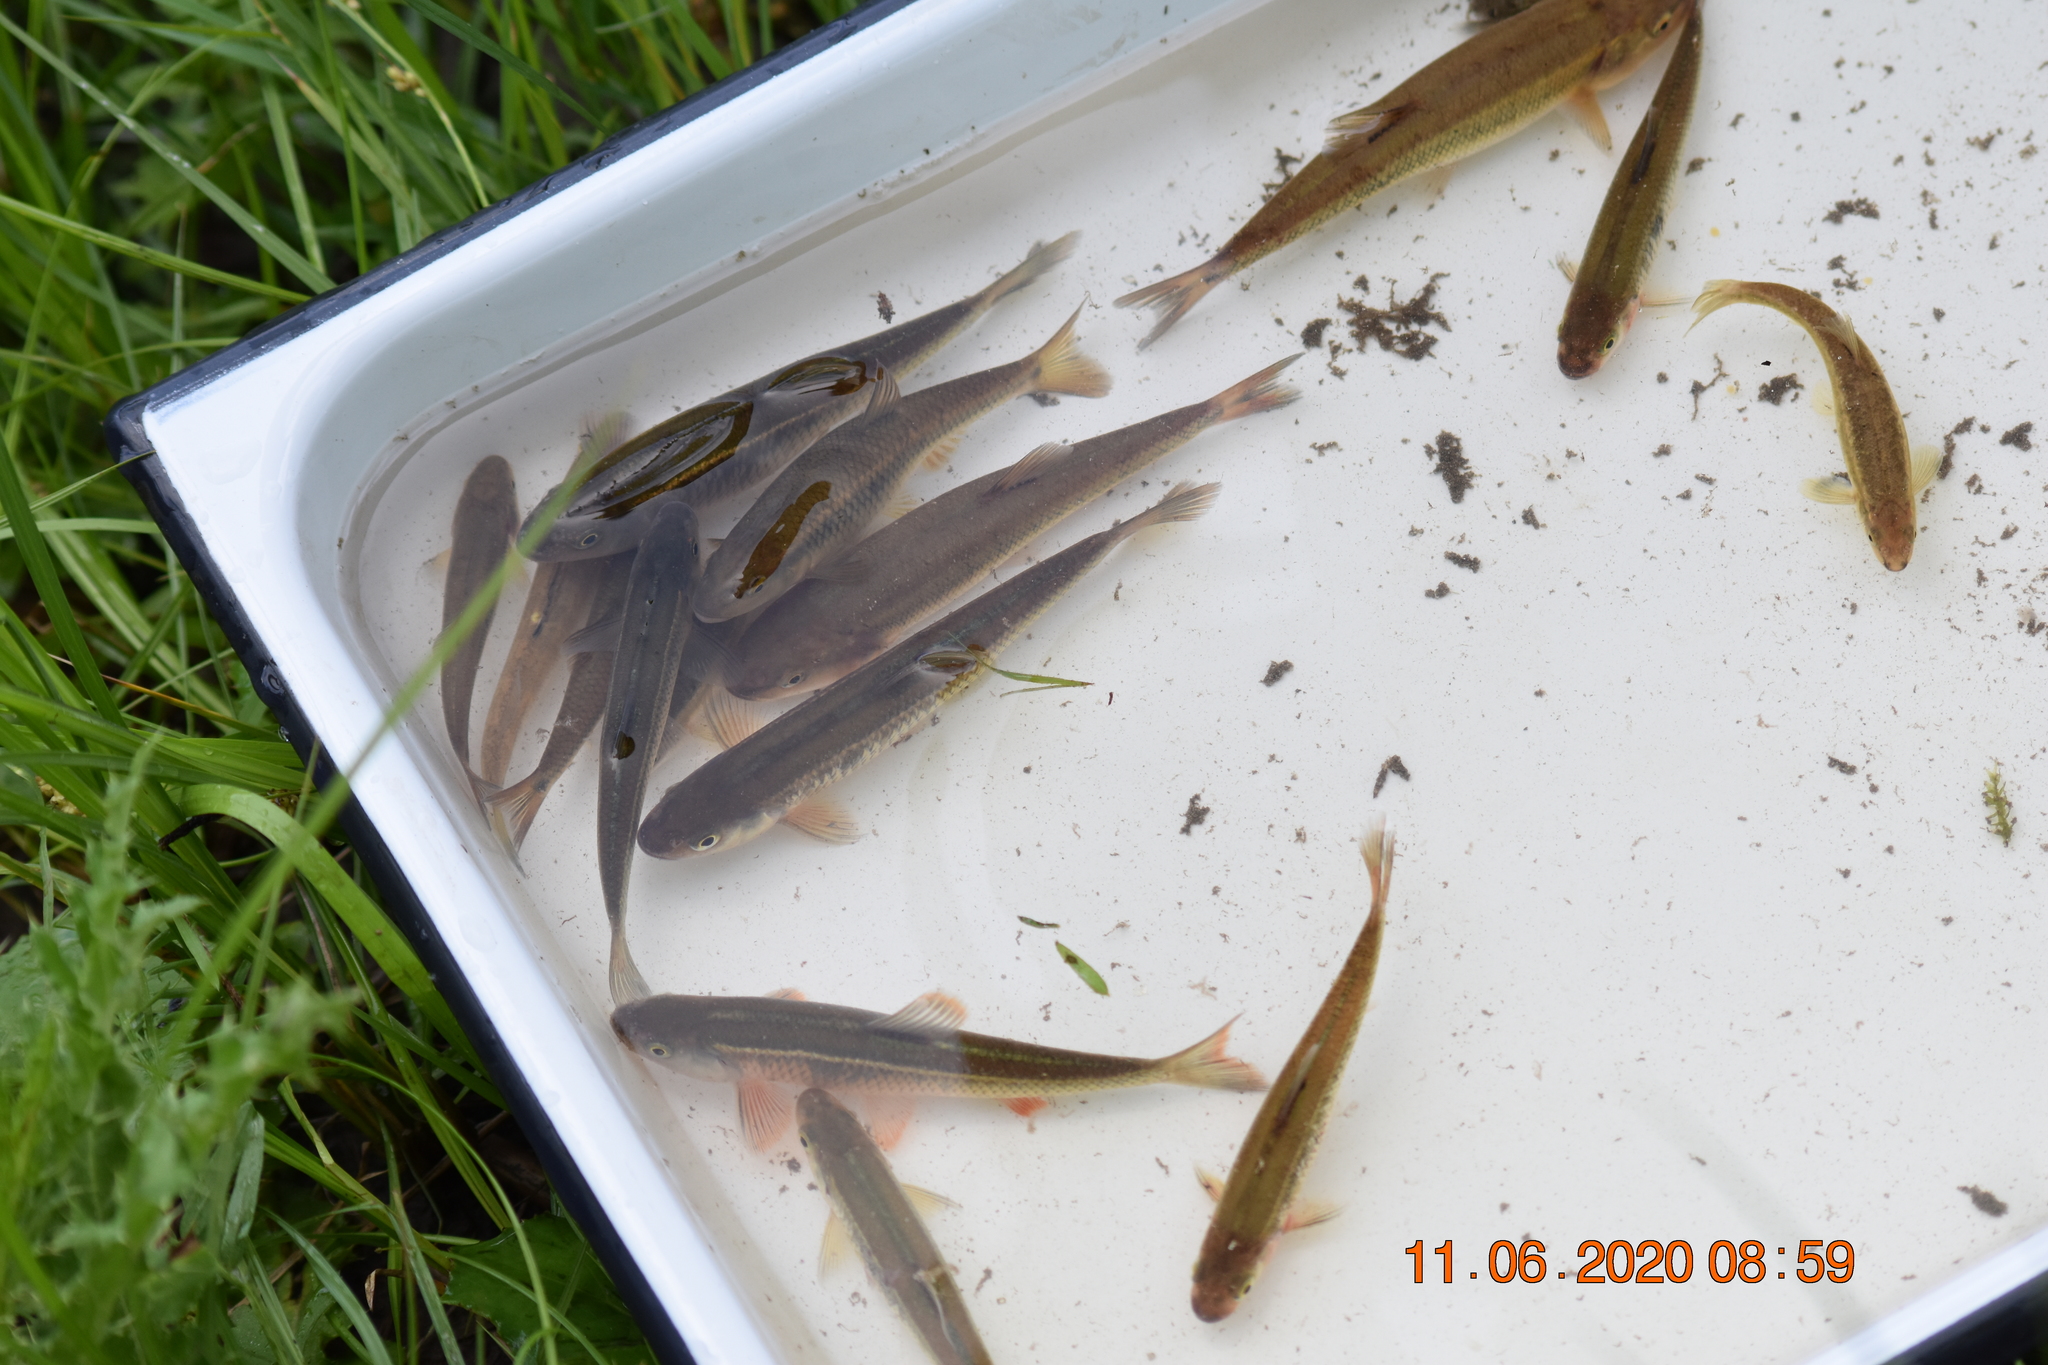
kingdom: Animalia
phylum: Chordata
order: Cypriniformes
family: Cyprinidae
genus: Luxilus
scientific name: Luxilus cornutus
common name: Common shiner
